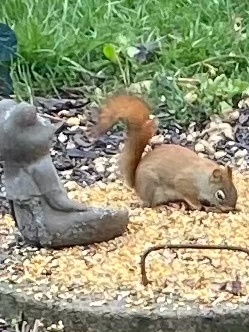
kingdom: Animalia
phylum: Chordata
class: Mammalia
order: Rodentia
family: Sciuridae
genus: Tamiasciurus
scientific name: Tamiasciurus hudsonicus
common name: Red squirrel
